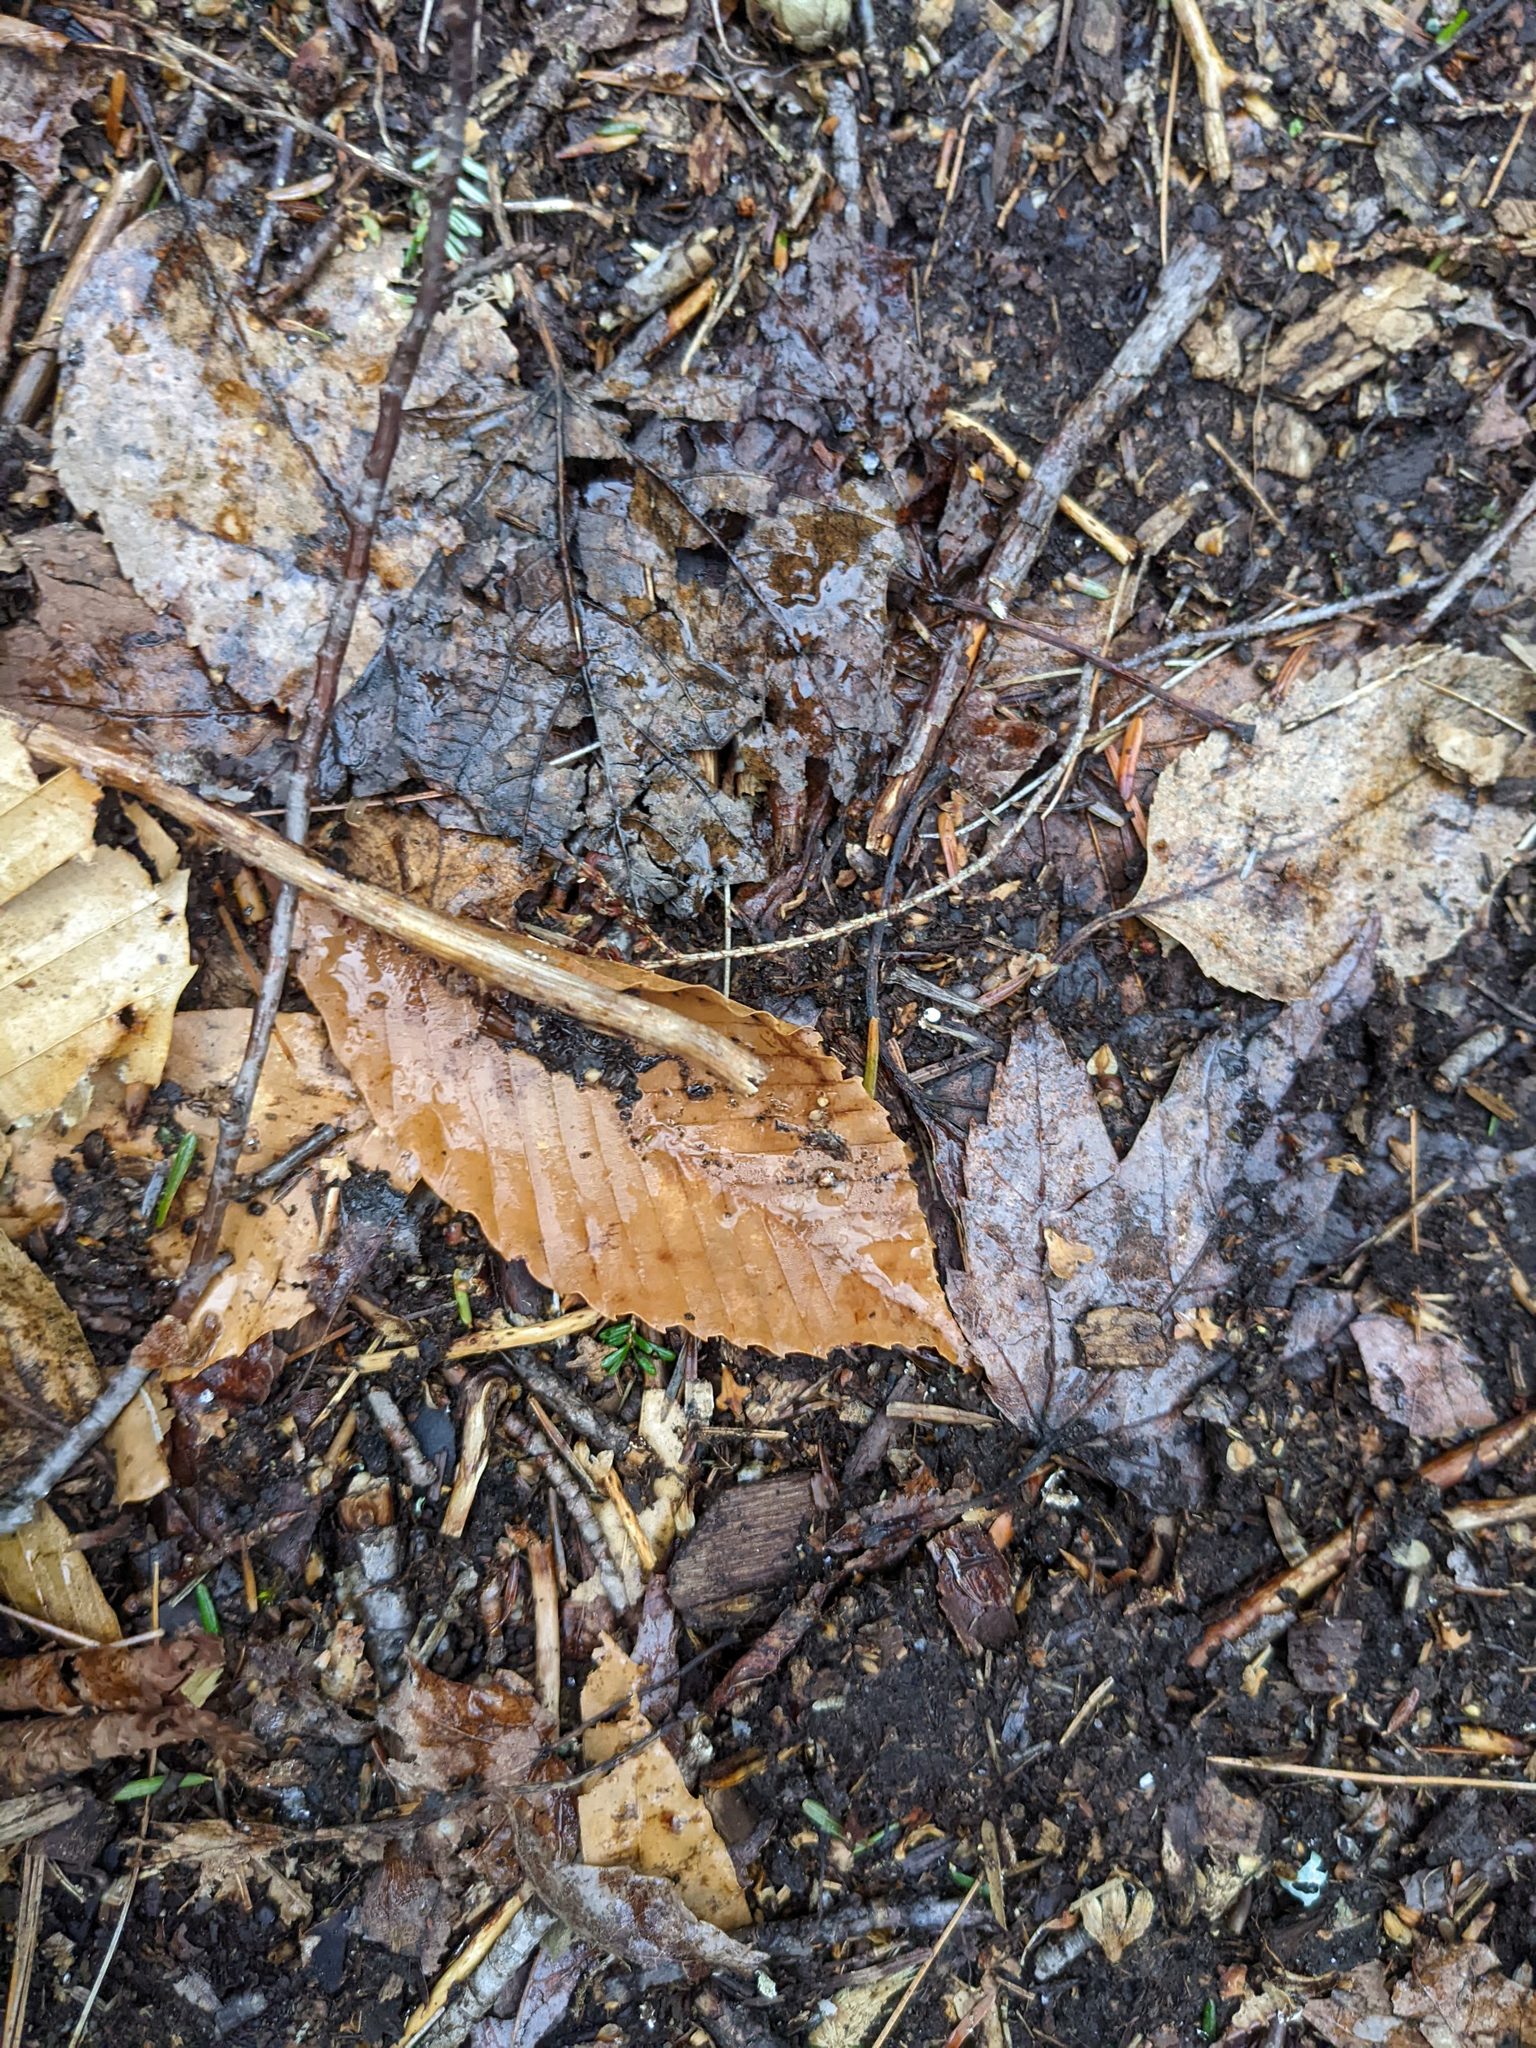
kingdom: Plantae
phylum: Tracheophyta
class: Magnoliopsida
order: Fagales
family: Fagaceae
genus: Fagus
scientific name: Fagus grandifolia
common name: American beech
